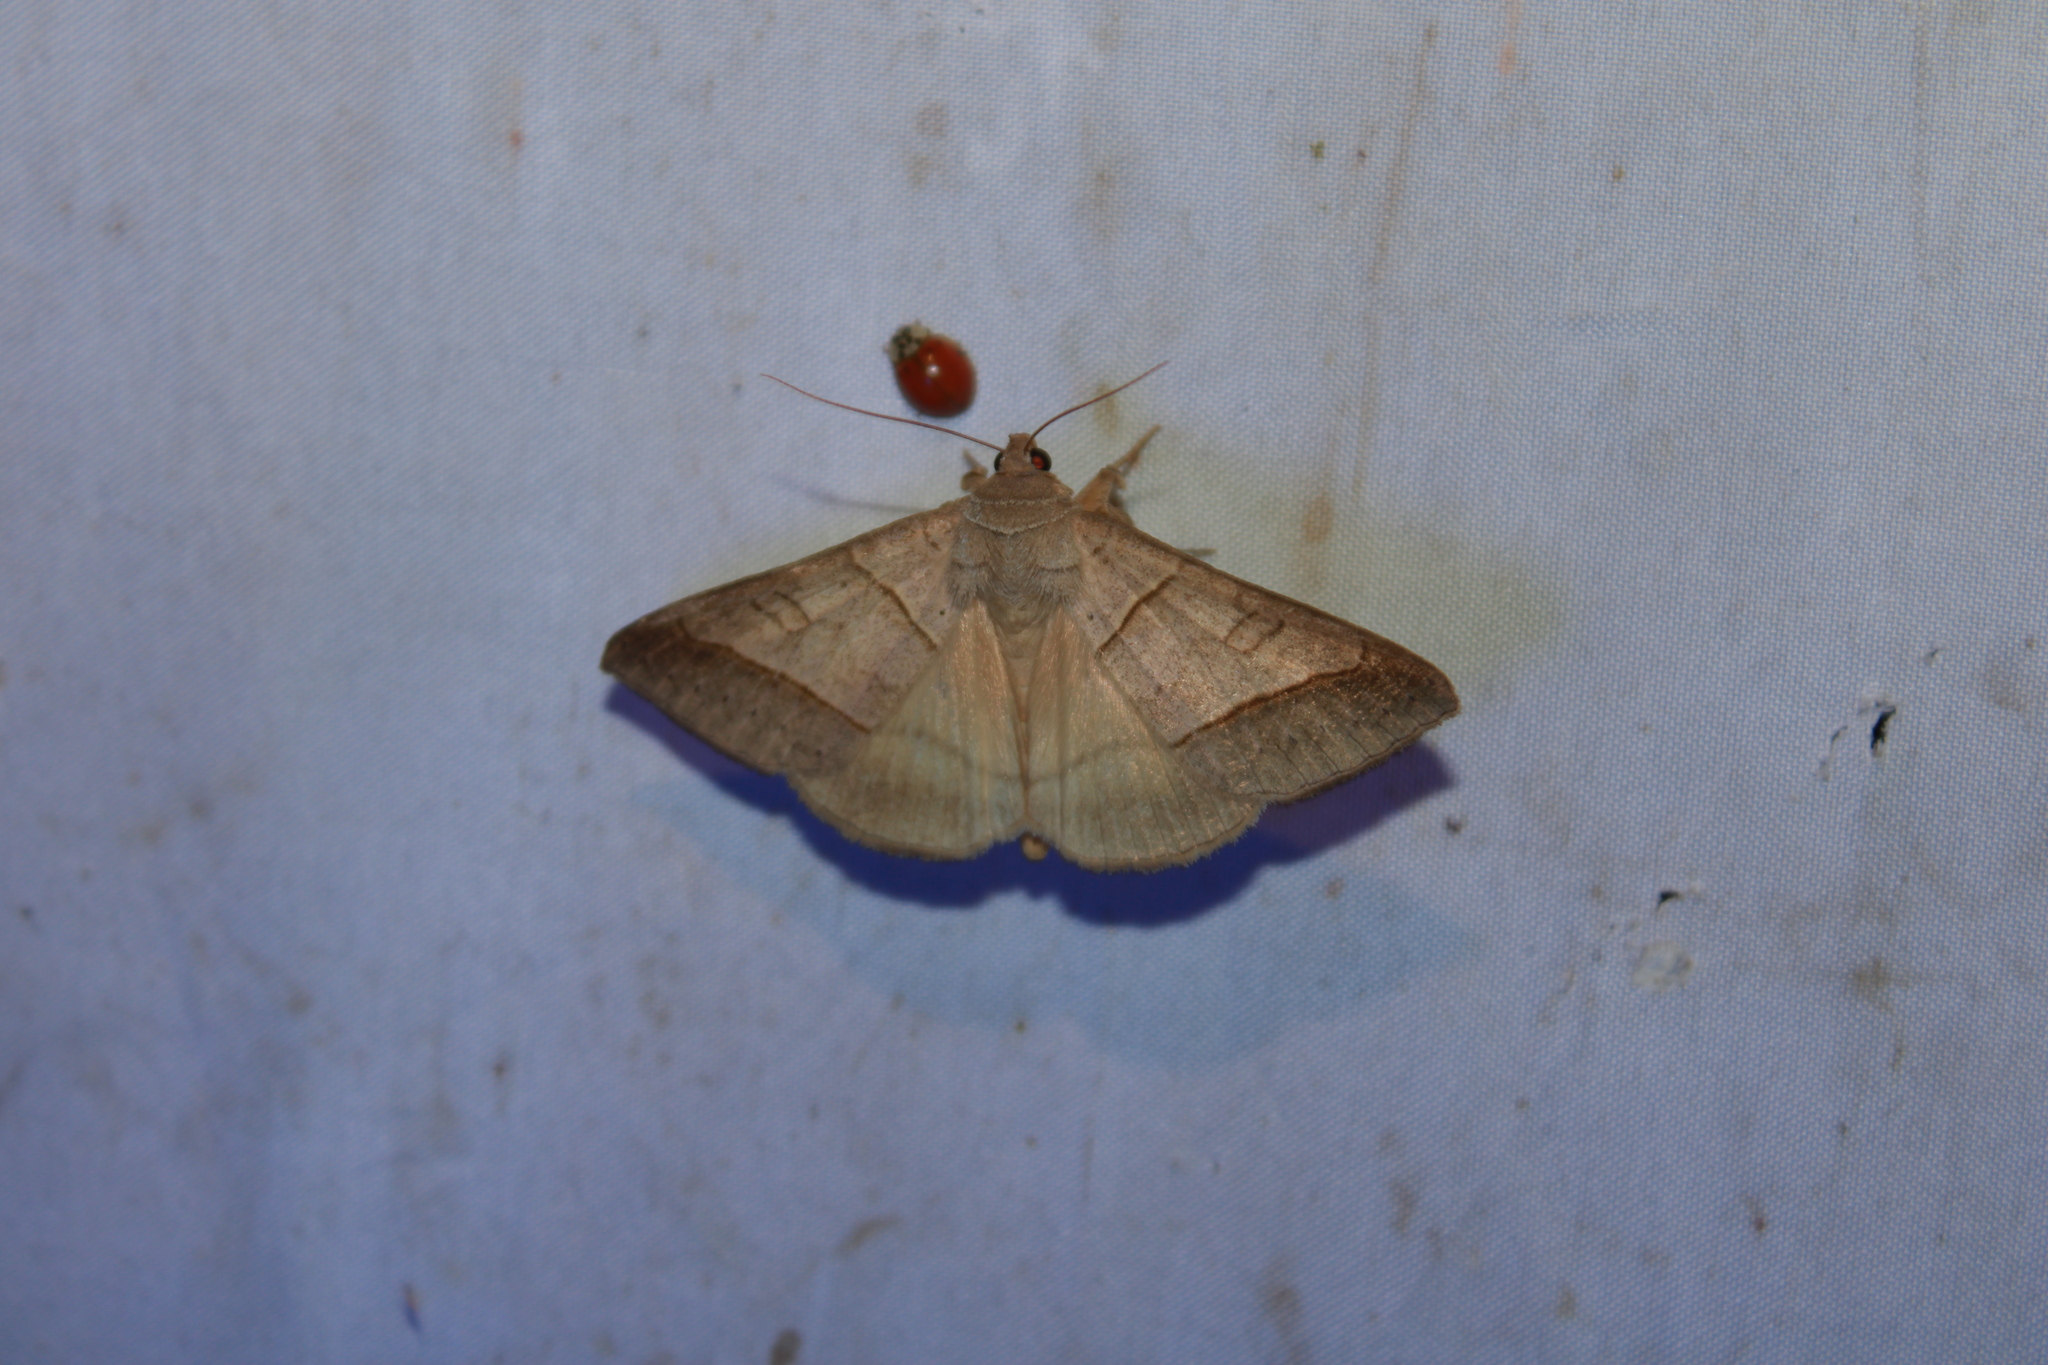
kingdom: Animalia
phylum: Arthropoda
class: Insecta
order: Lepidoptera
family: Erebidae
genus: Mocis
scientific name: Mocis texana
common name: Texas mocis moth
